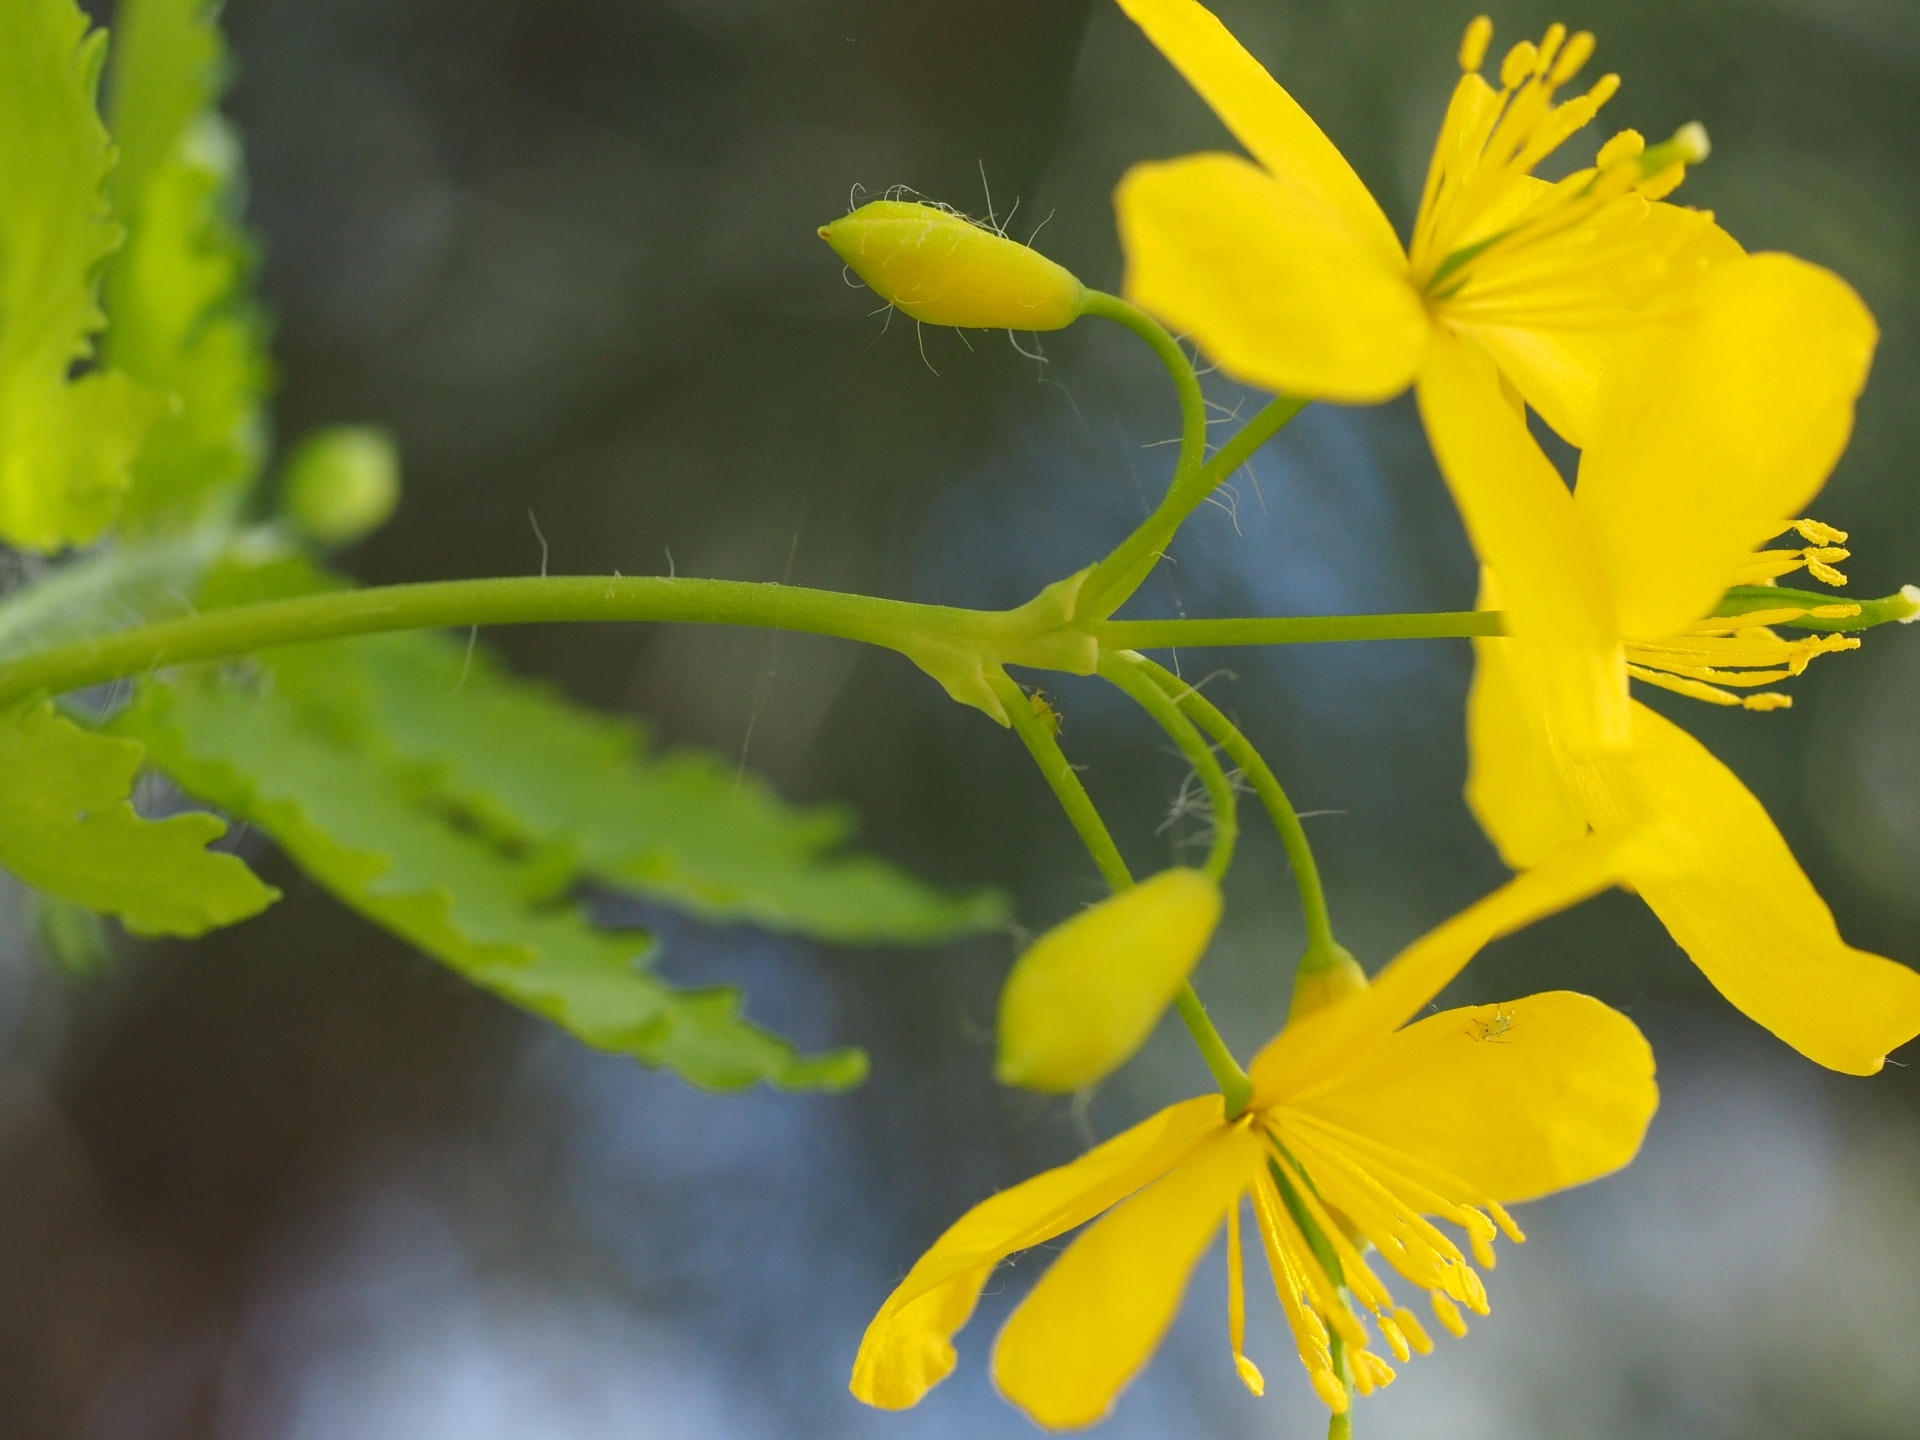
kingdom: Plantae
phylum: Tracheophyta
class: Magnoliopsida
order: Ranunculales
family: Papaveraceae
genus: Chelidonium
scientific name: Chelidonium majus
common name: Greater celandine
